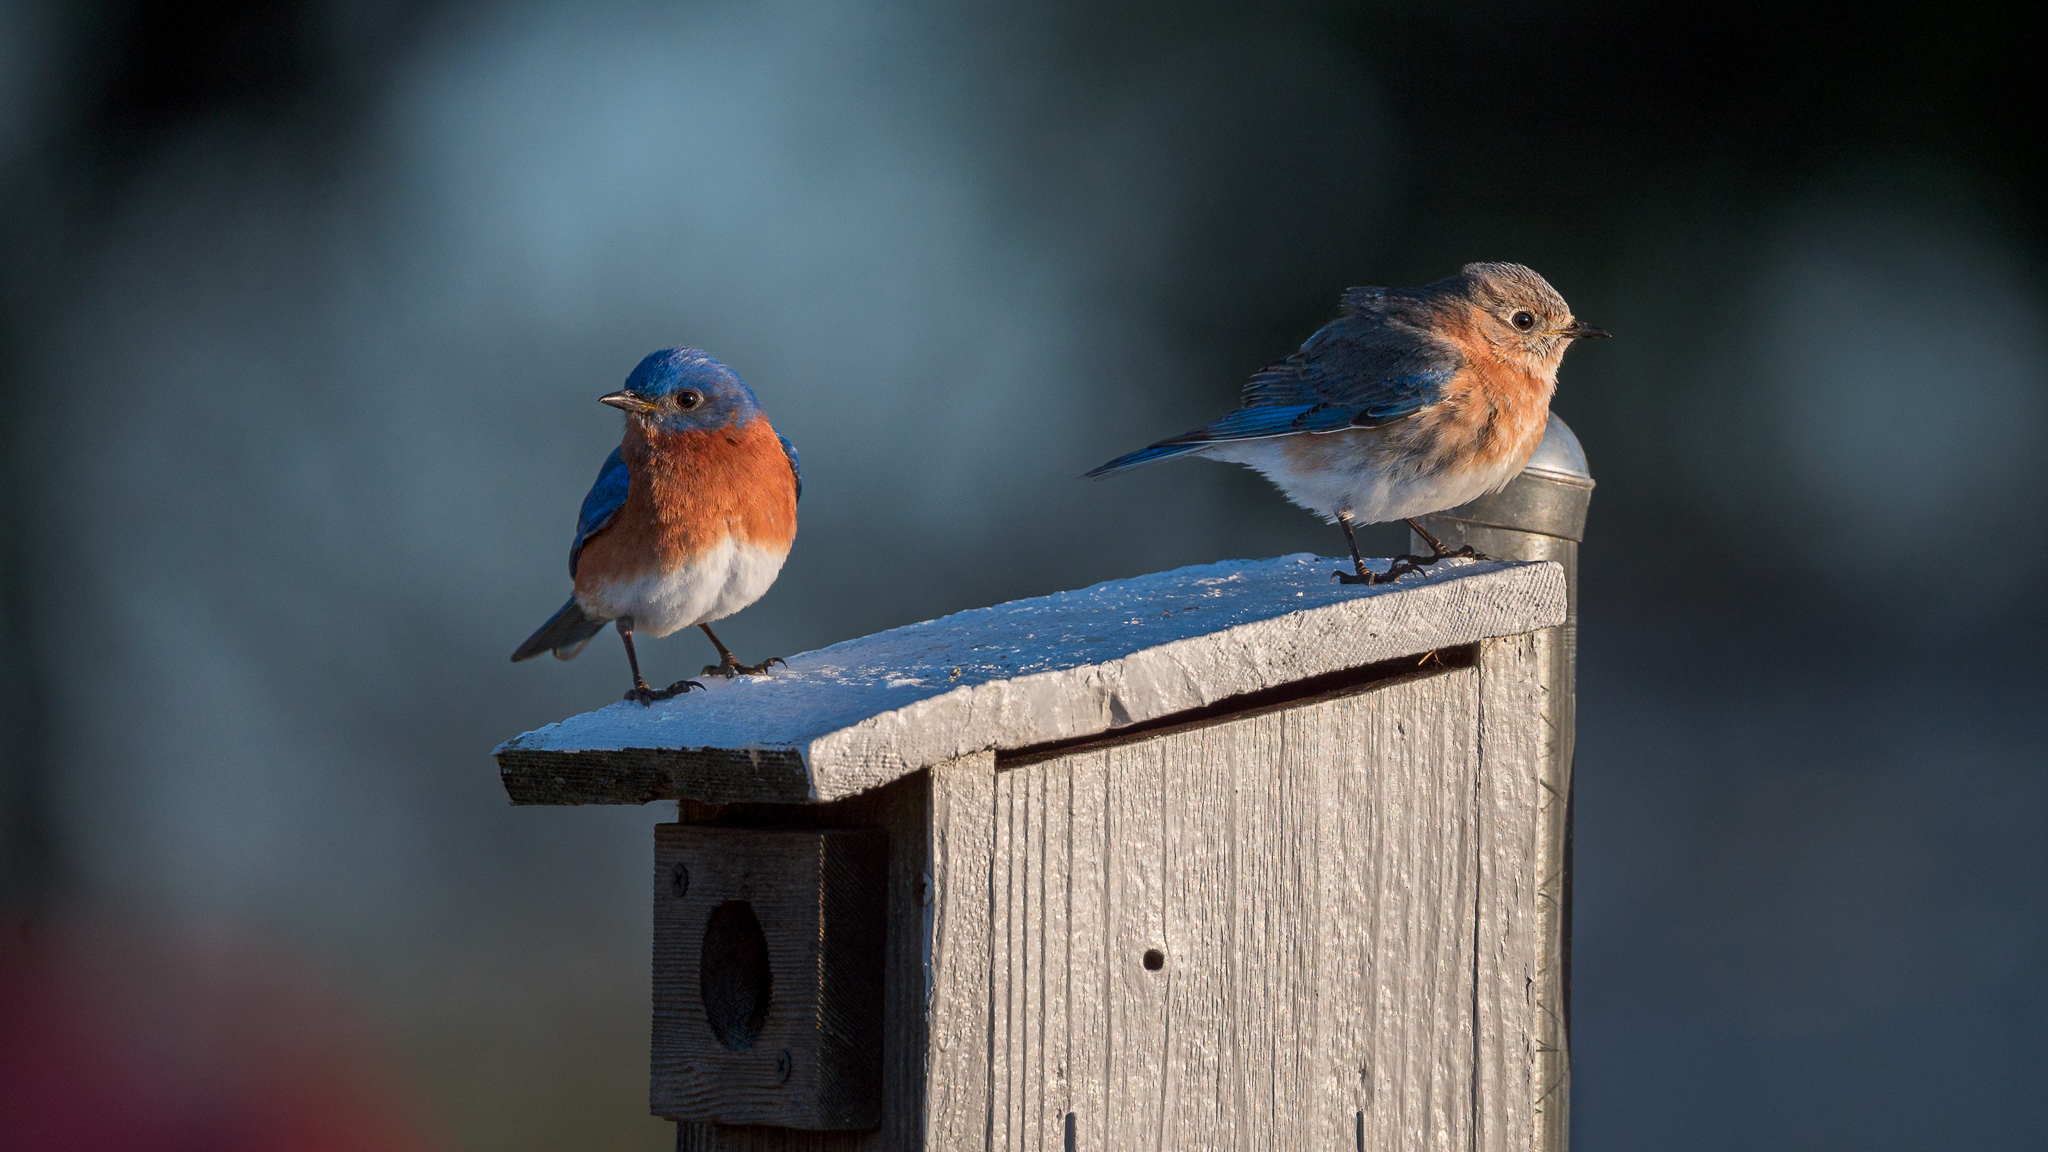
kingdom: Animalia
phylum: Chordata
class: Aves
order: Passeriformes
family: Turdidae
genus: Sialia
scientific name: Sialia sialis
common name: Eastern bluebird
